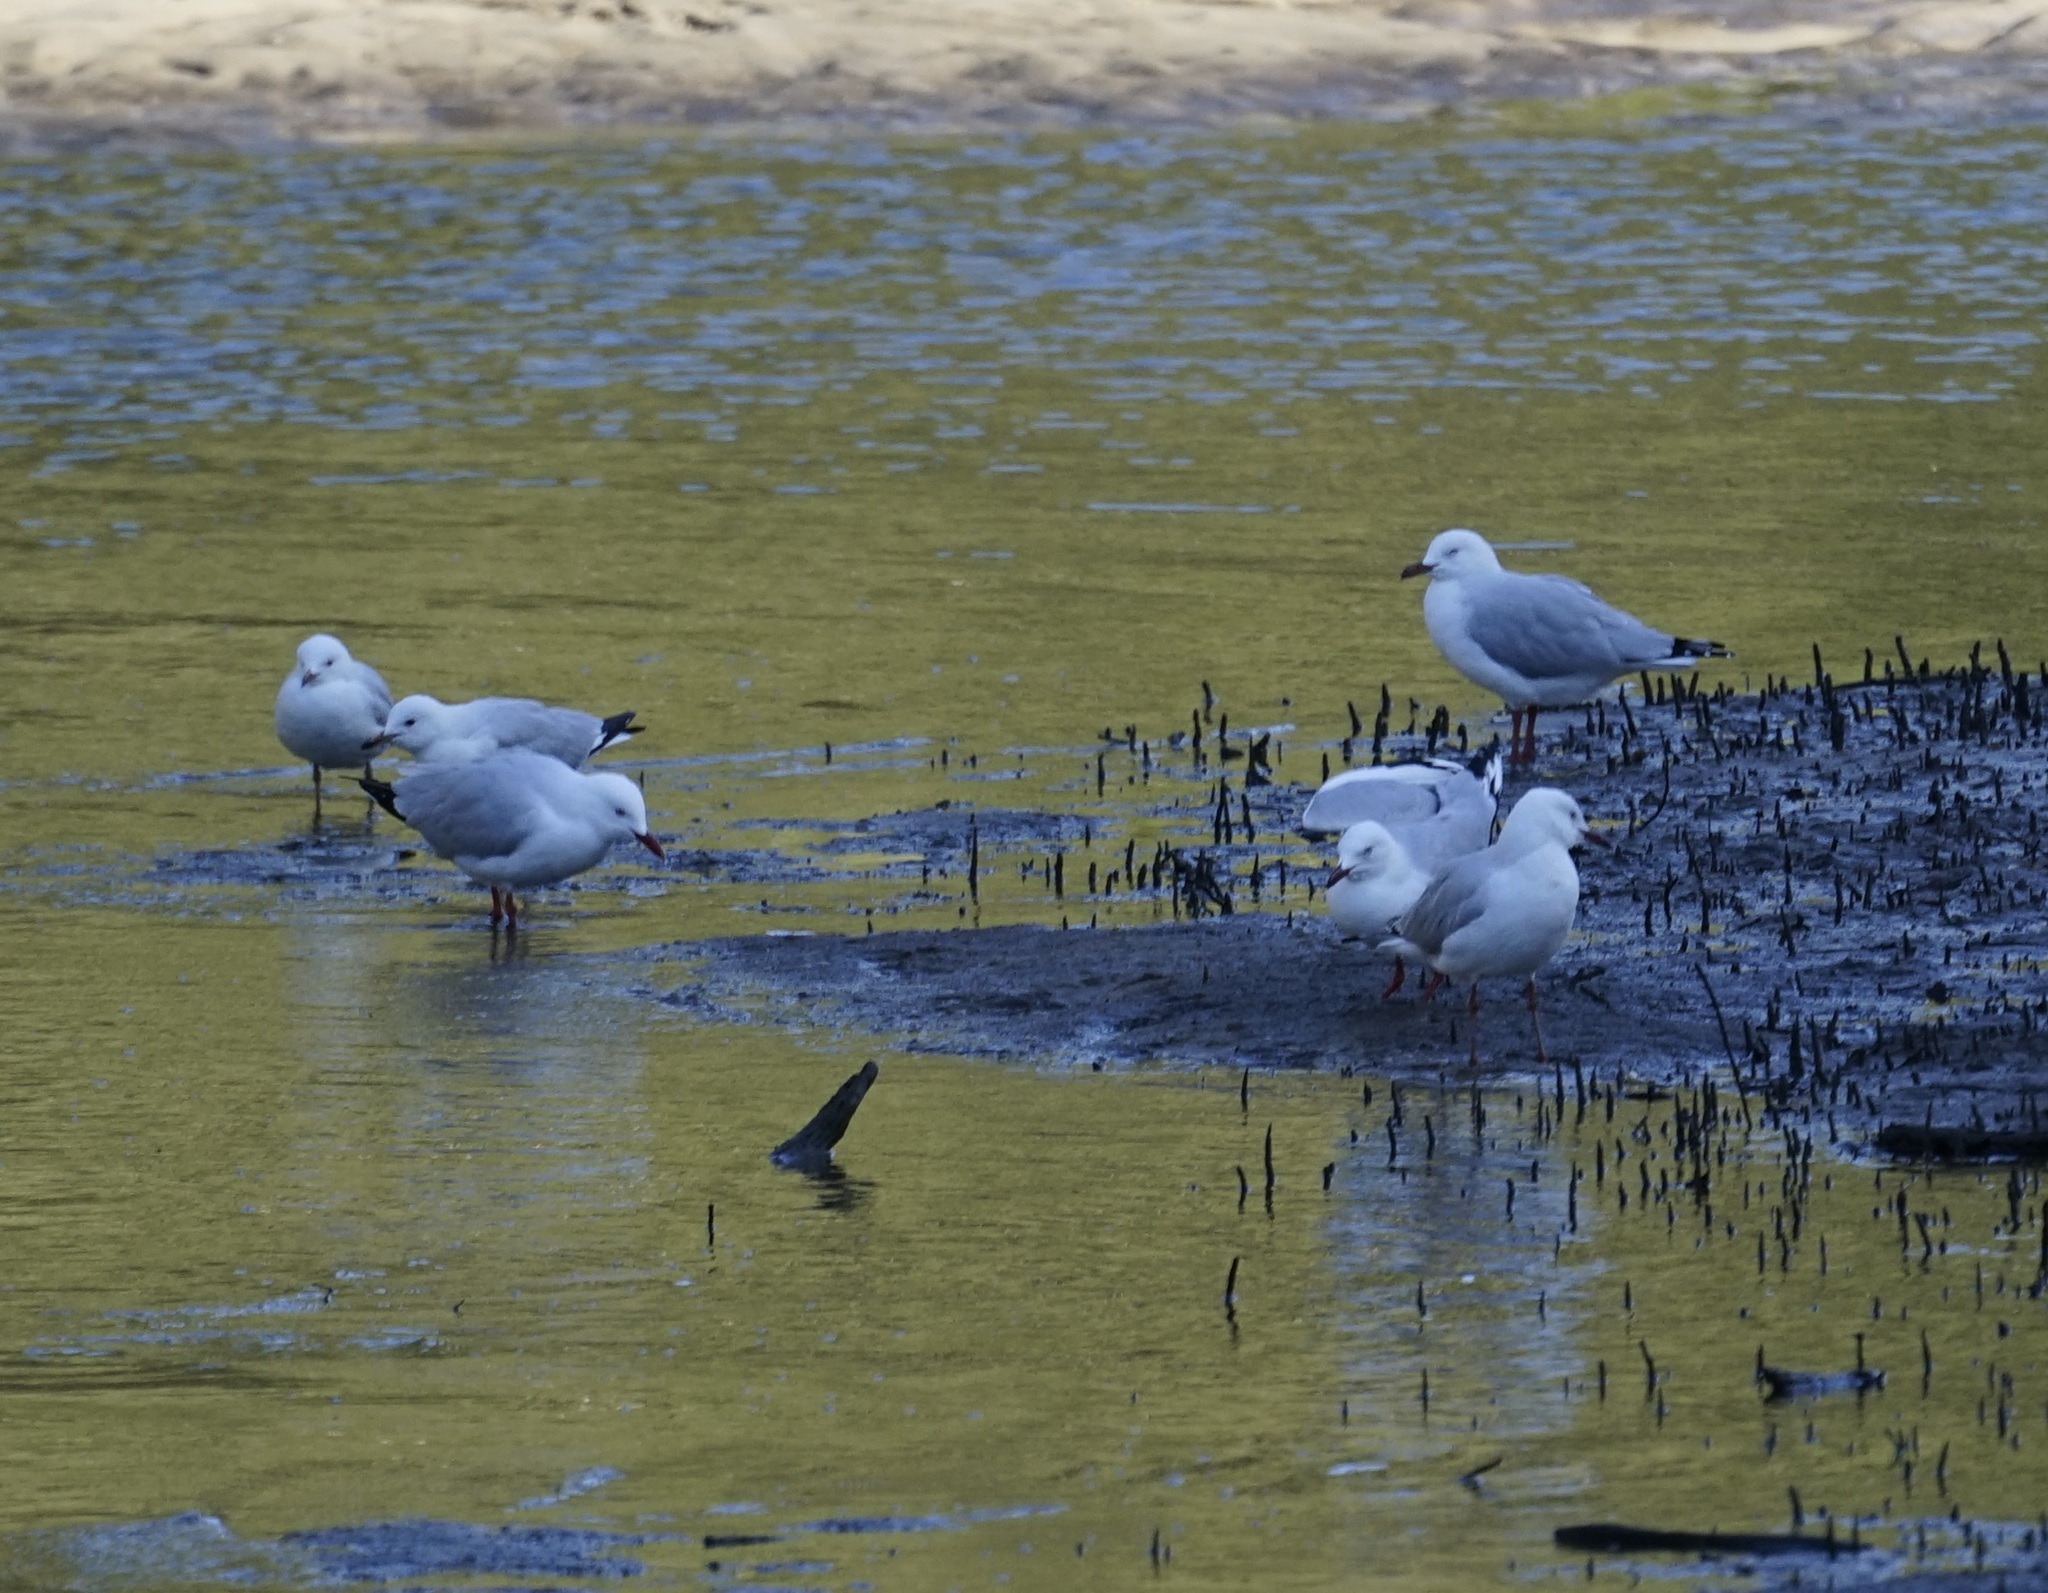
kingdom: Animalia
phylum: Chordata
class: Aves
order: Charadriiformes
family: Laridae
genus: Chroicocephalus
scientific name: Chroicocephalus novaehollandiae
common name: Silver gull
